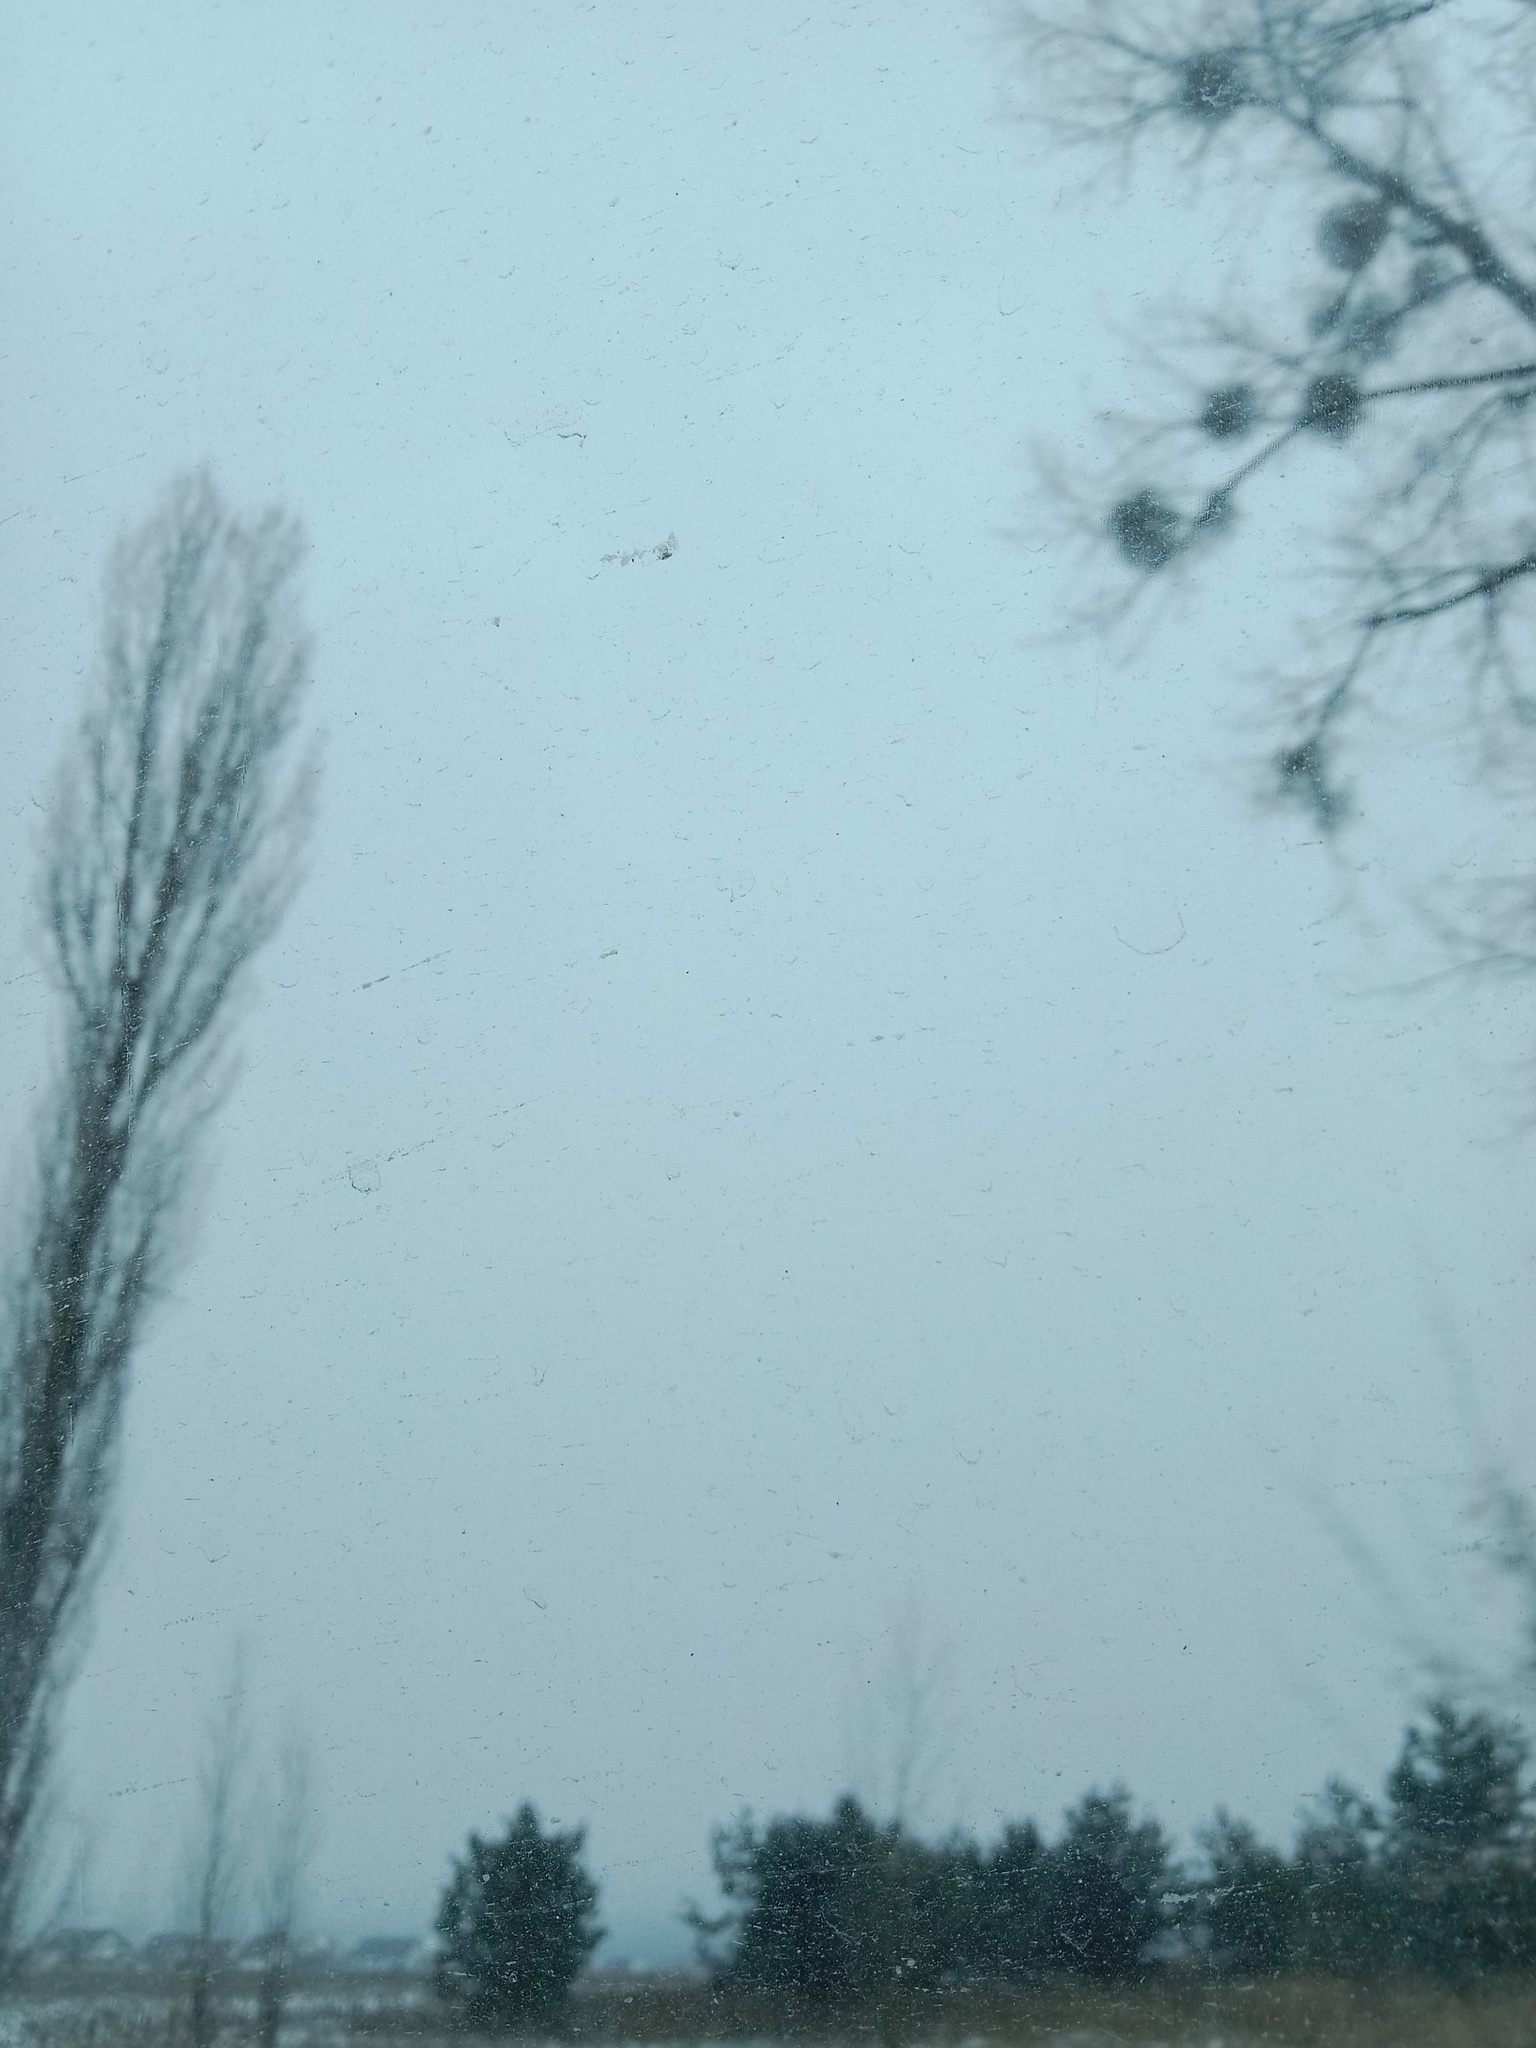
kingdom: Plantae
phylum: Tracheophyta
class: Magnoliopsida
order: Santalales
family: Viscaceae
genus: Viscum
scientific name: Viscum album
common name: Mistletoe
